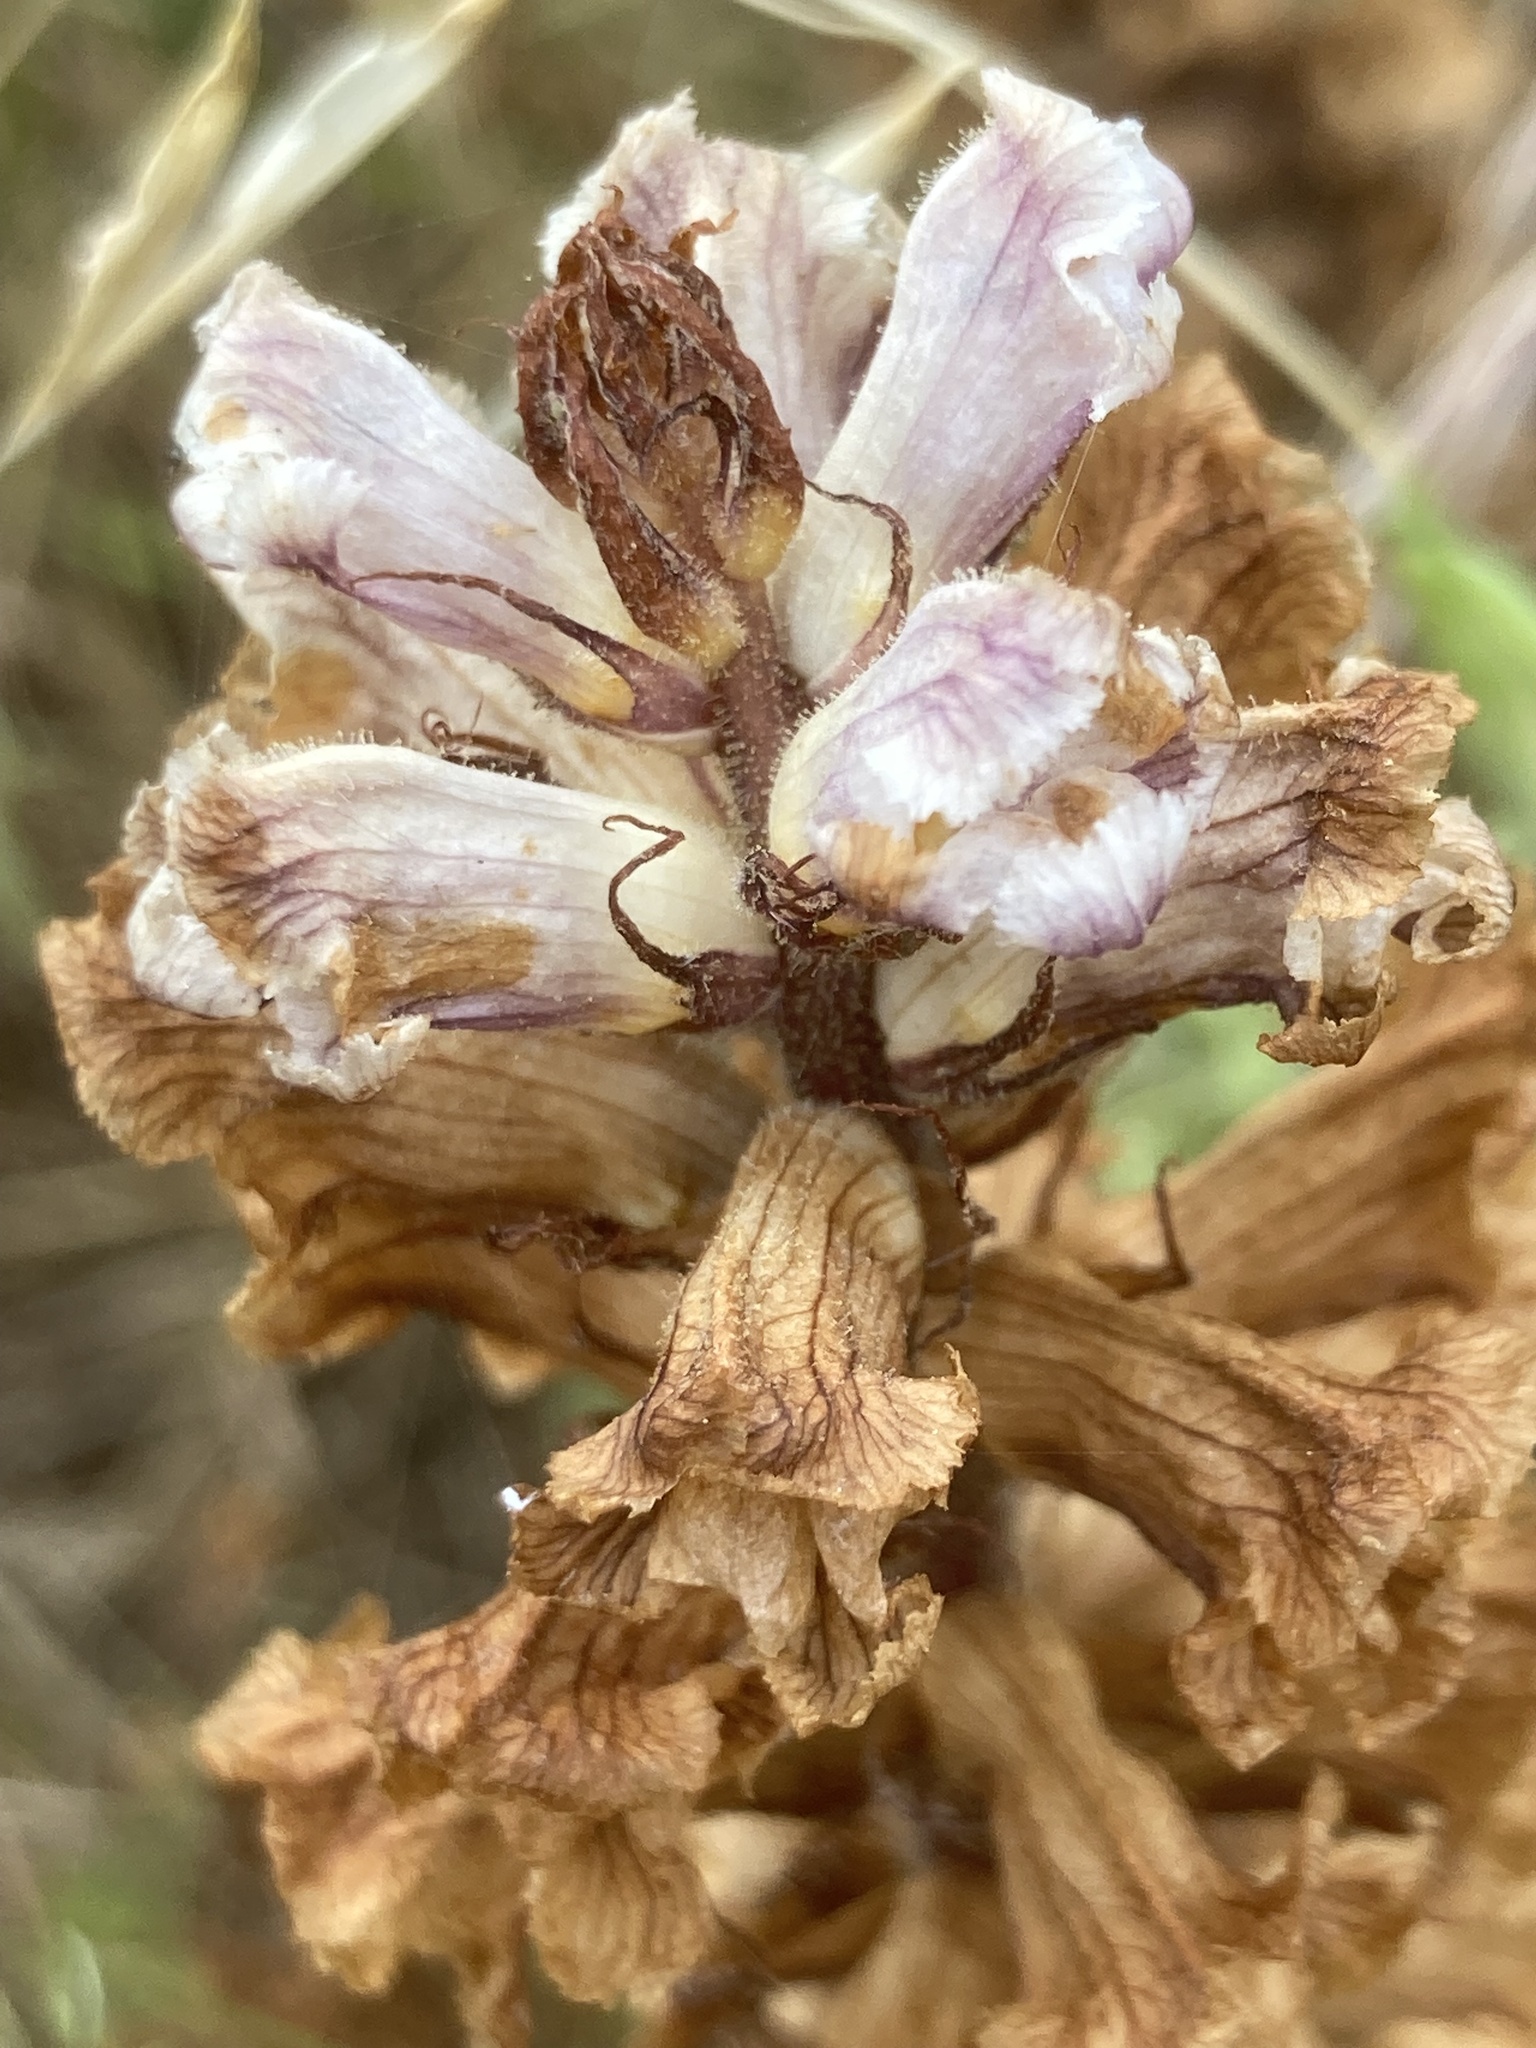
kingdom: Plantae
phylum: Tracheophyta
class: Magnoliopsida
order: Lamiales
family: Orobanchaceae
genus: Orobanche
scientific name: Orobanche crenata
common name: Bean broomrape
